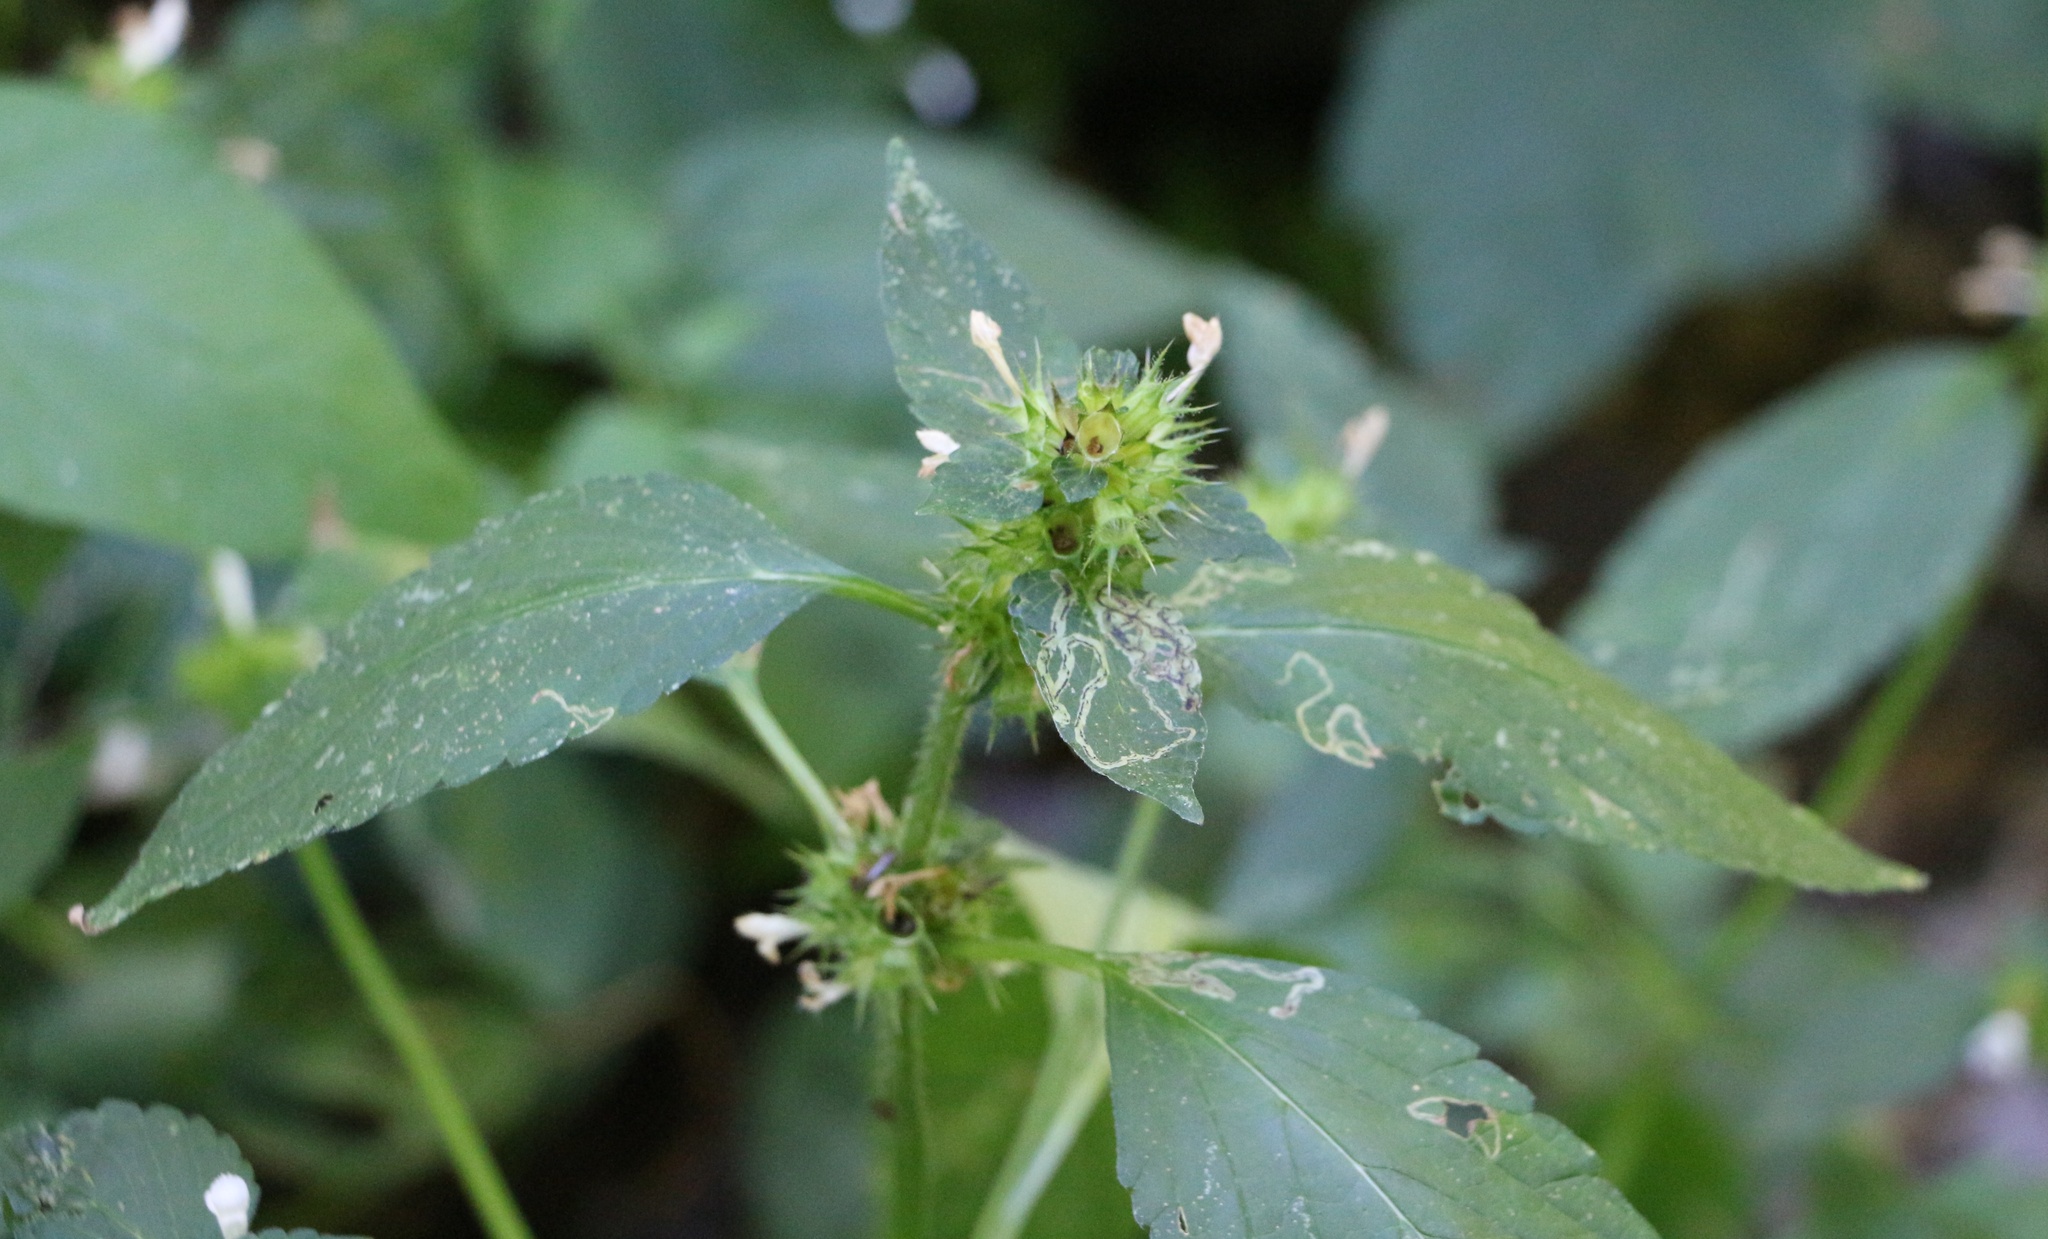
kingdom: Plantae
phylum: Tracheophyta
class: Magnoliopsida
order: Lamiales
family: Lamiaceae
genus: Galeopsis
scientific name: Galeopsis bifida
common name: Bifid hemp-nettle
